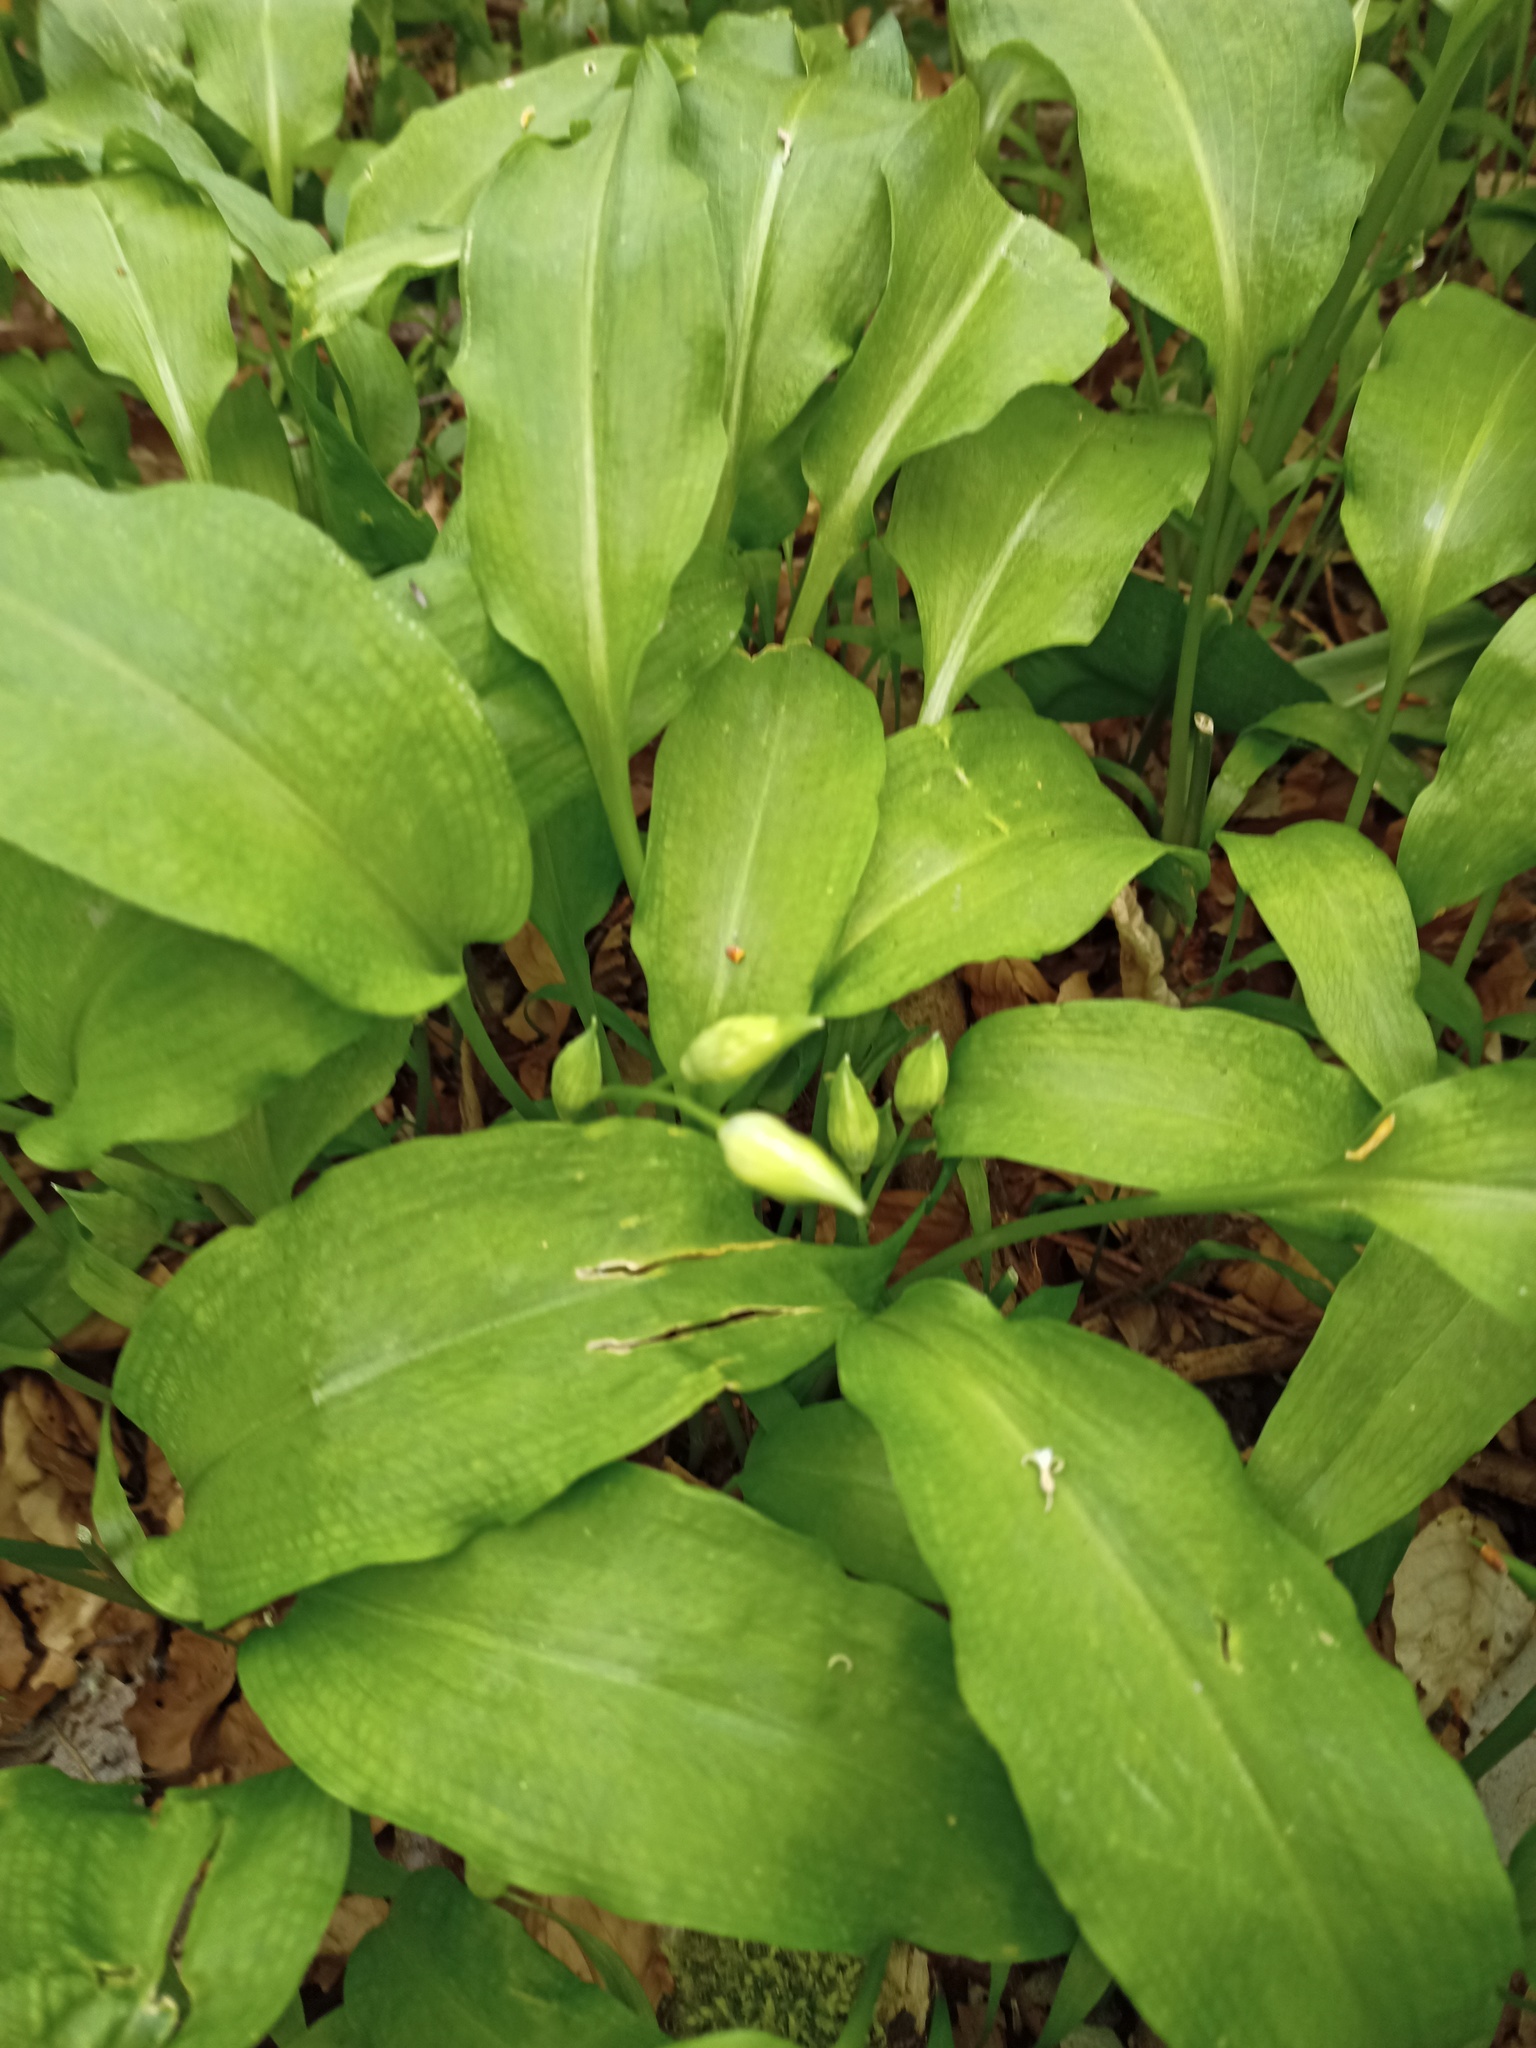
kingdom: Plantae
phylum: Tracheophyta
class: Liliopsida
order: Asparagales
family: Amaryllidaceae
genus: Allium
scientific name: Allium ursinum
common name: Ramsons
